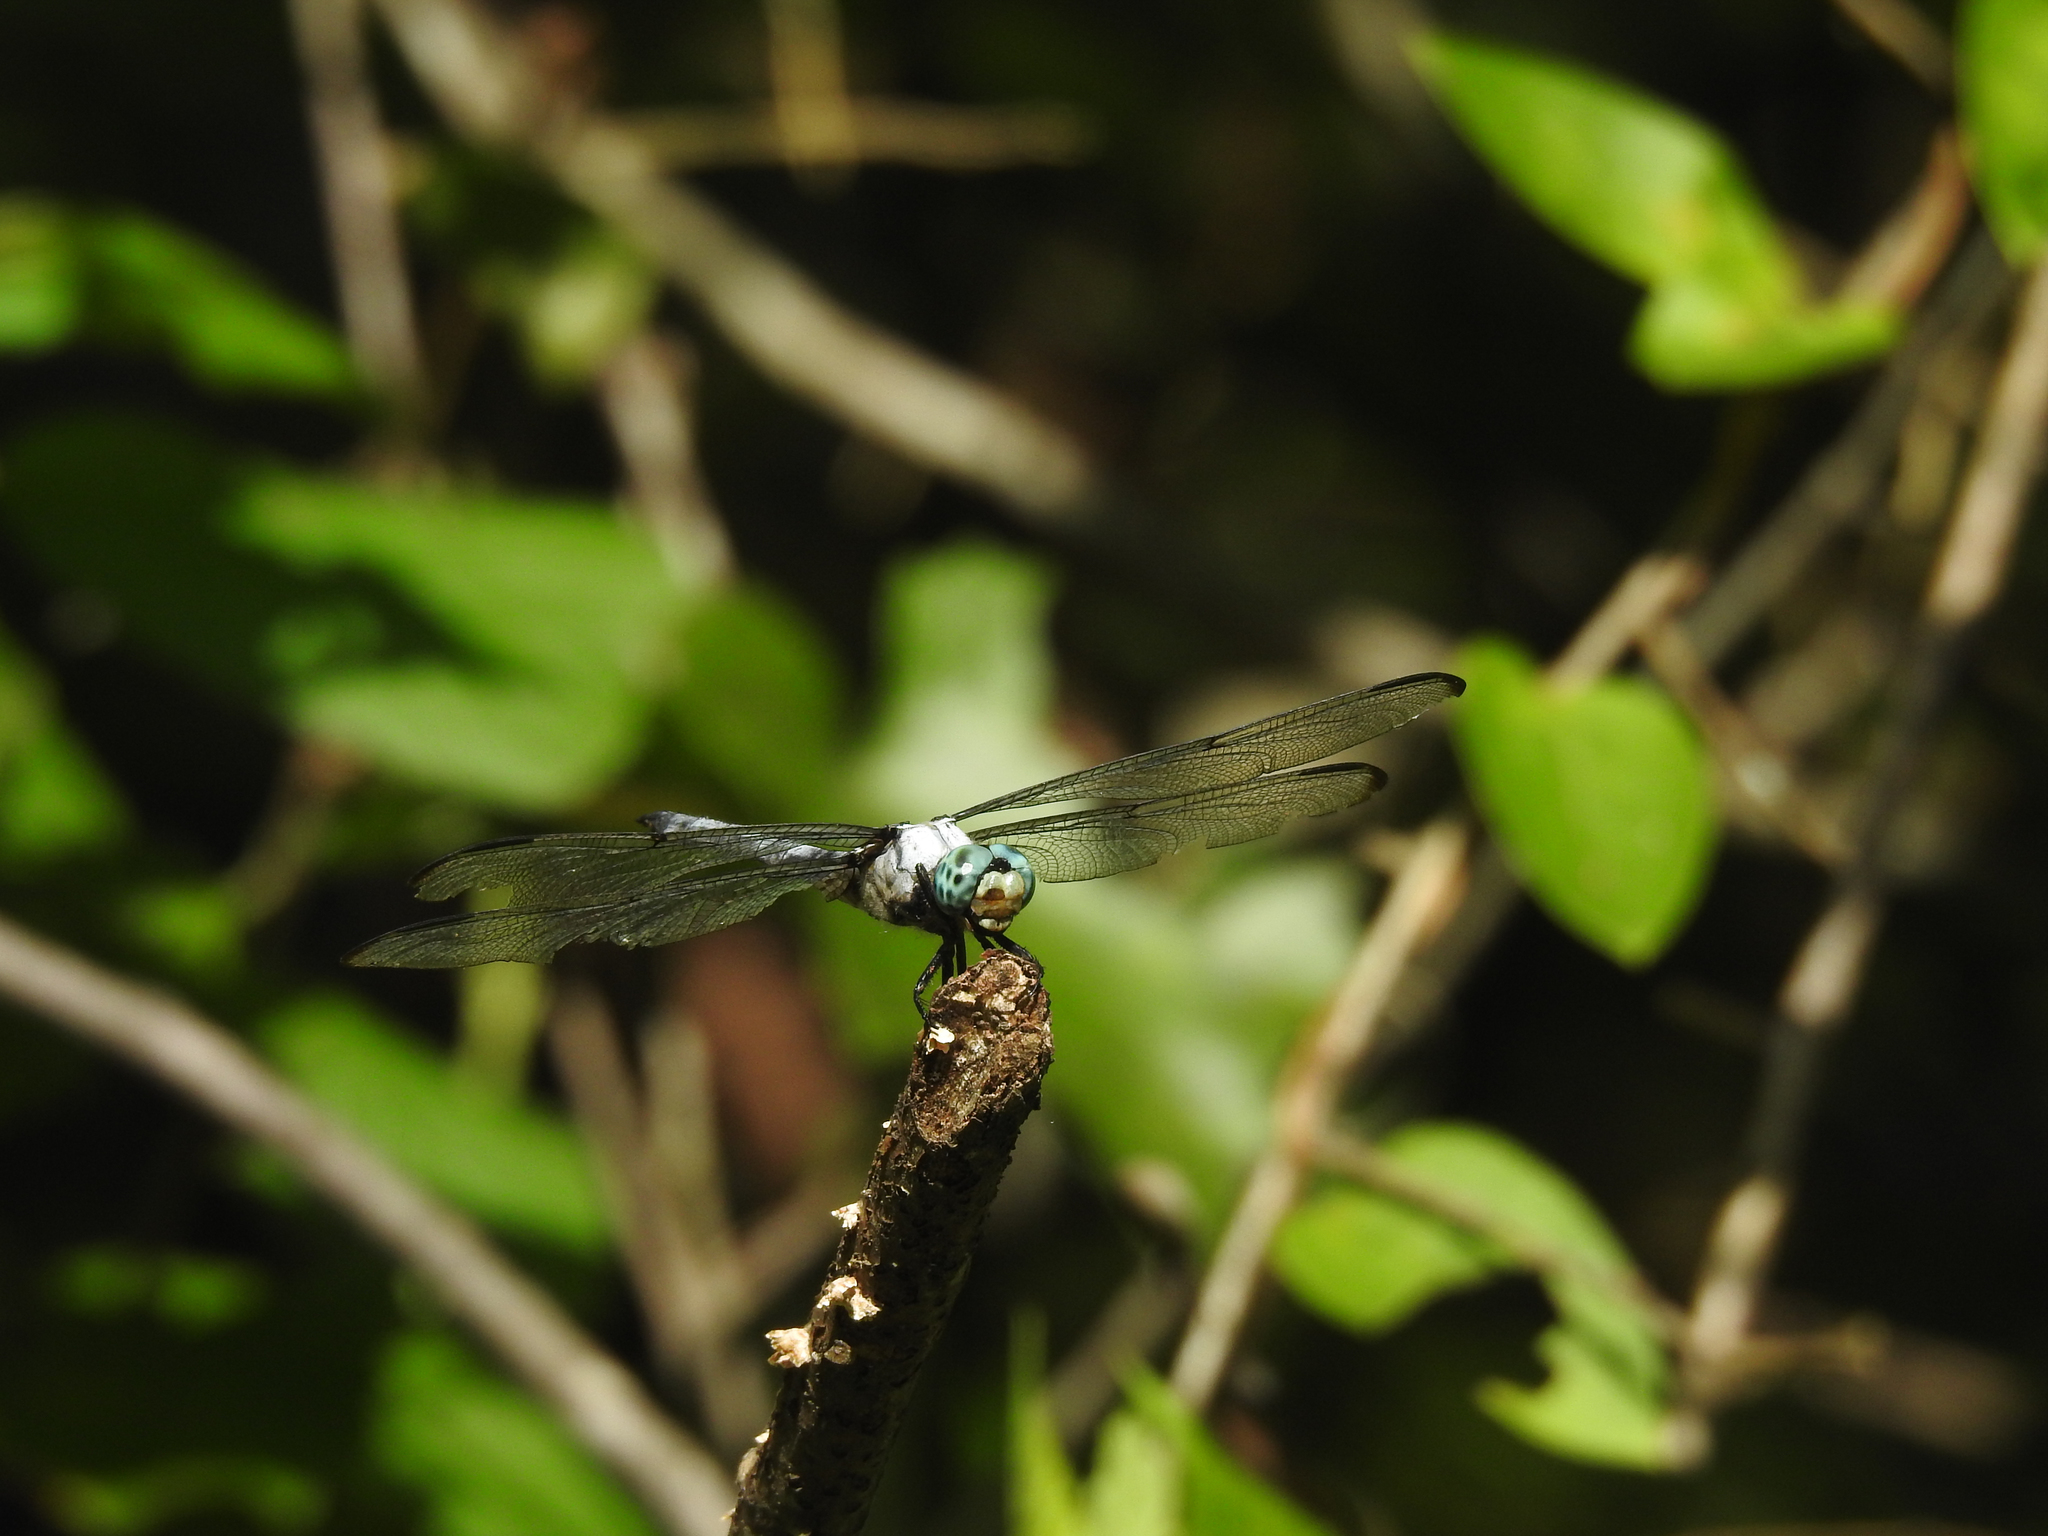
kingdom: Animalia
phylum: Arthropoda
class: Insecta
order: Odonata
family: Libellulidae
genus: Libellula
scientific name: Libellula vibrans
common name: Great blue skimmer
